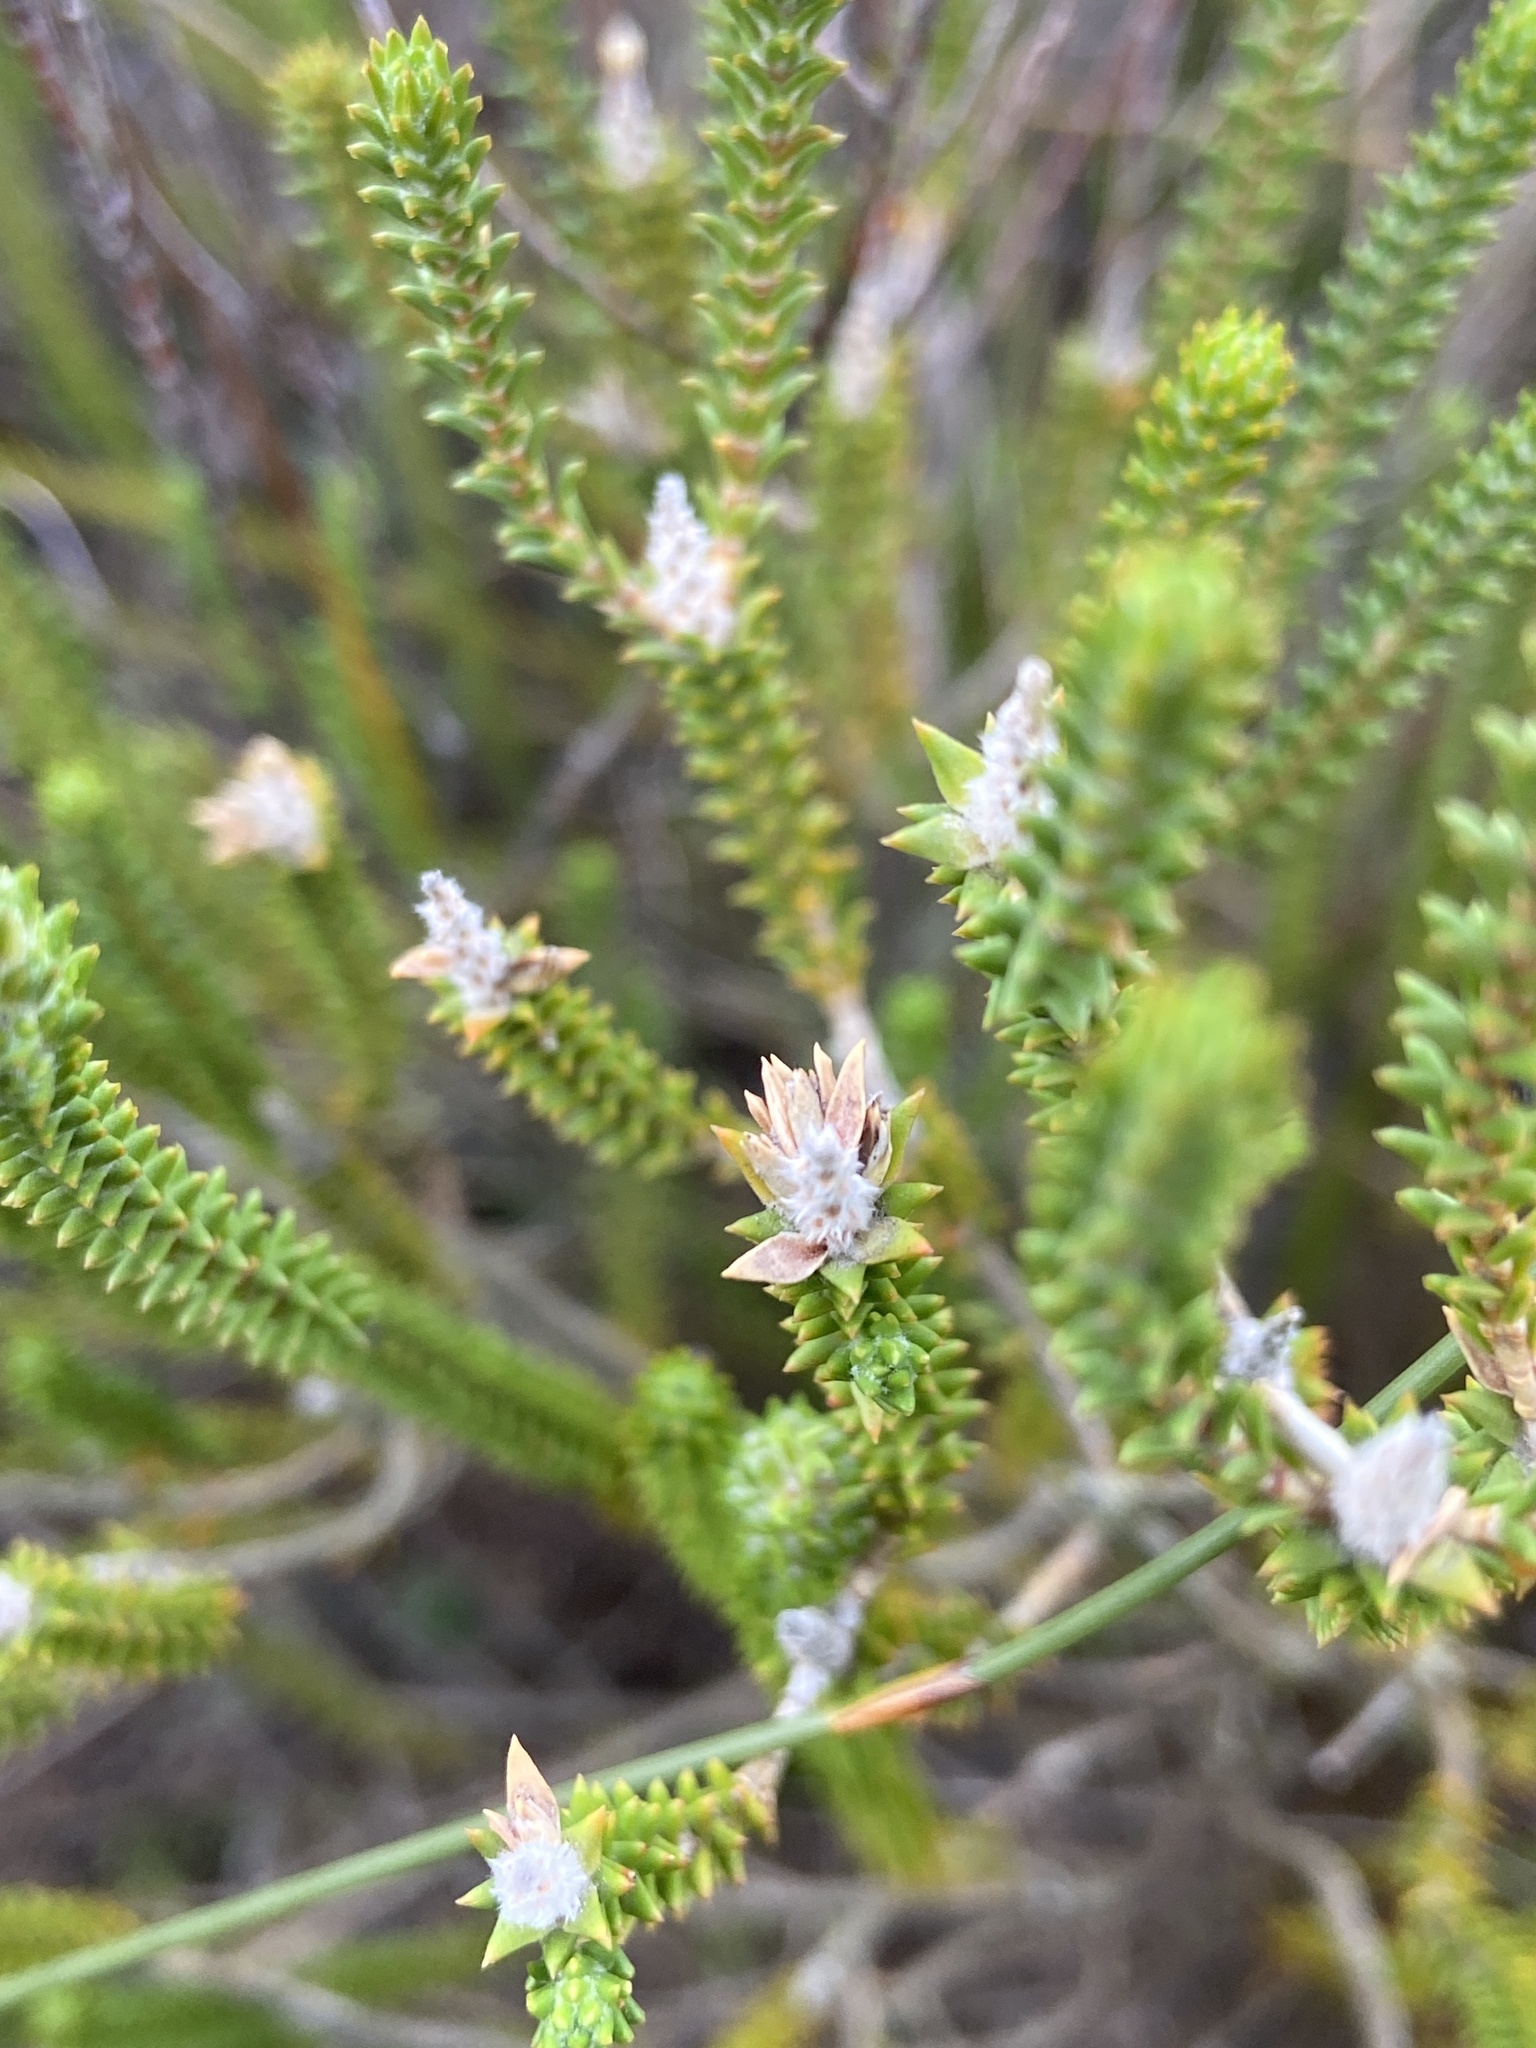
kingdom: Plantae
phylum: Tracheophyta
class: Magnoliopsida
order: Lamiales
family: Stilbaceae
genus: Stilbe
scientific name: Stilbe ericoides
